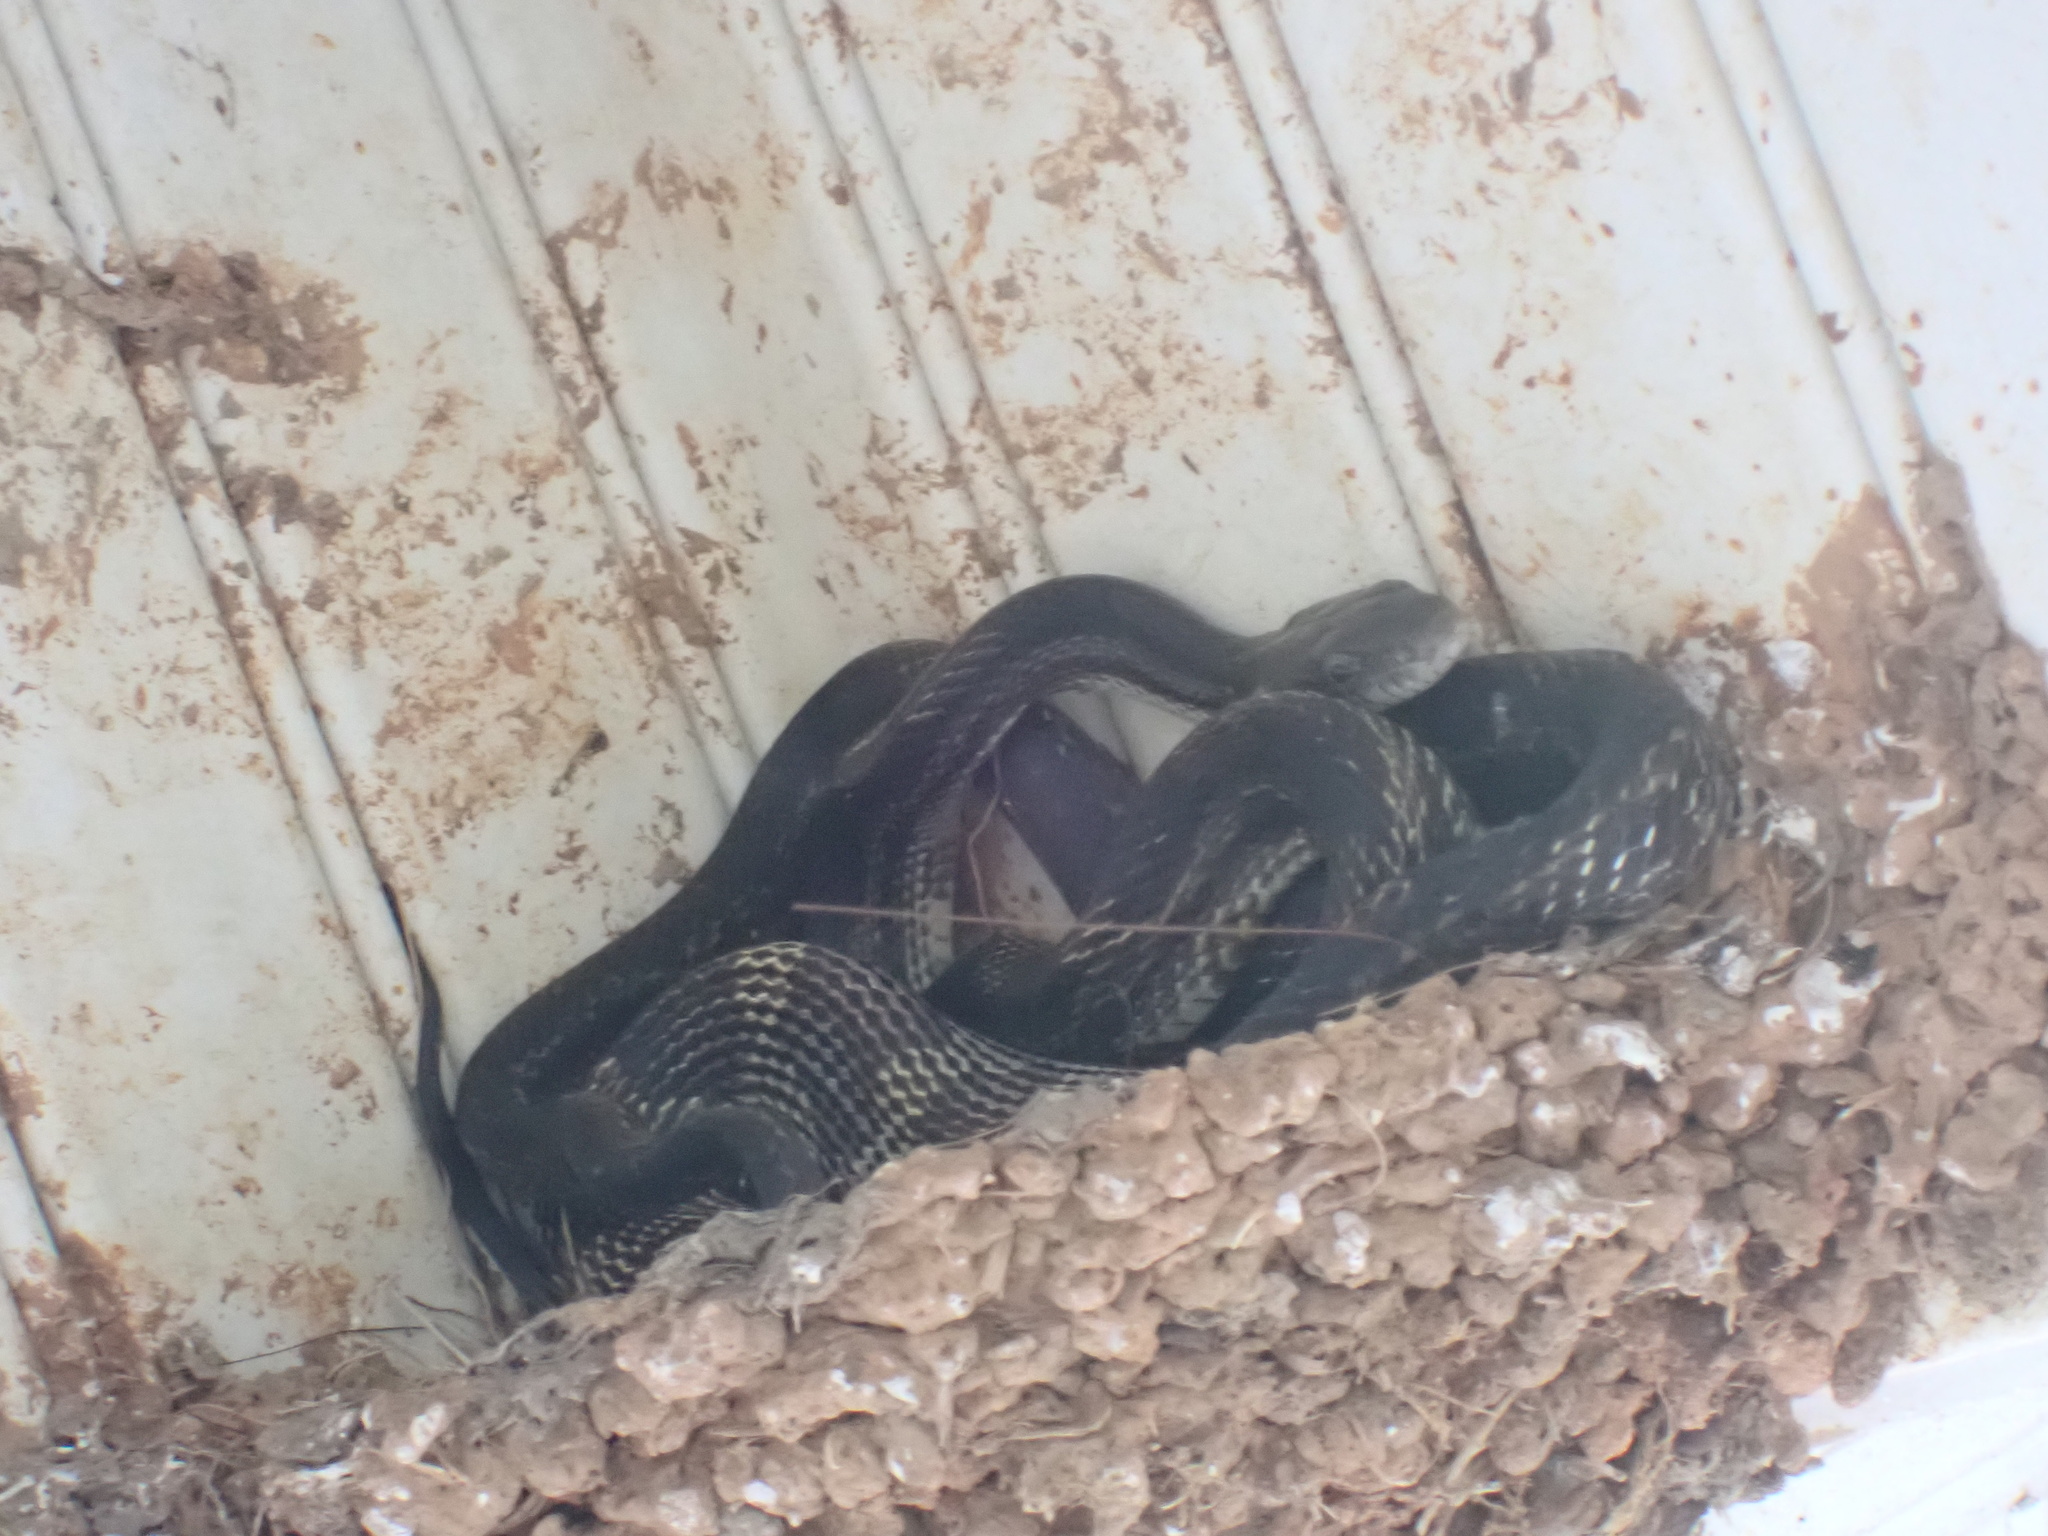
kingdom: Animalia
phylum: Chordata
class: Squamata
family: Colubridae
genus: Pantherophis
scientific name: Pantherophis spiloides
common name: Gray rat snake
